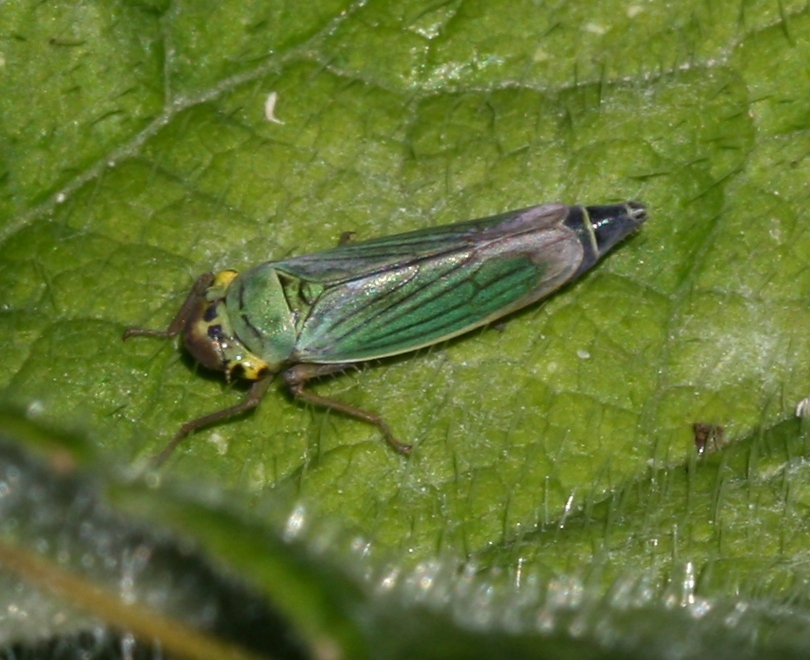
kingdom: Animalia
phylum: Arthropoda
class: Insecta
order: Hemiptera
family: Cicadellidae
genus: Cicadella
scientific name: Cicadella viridis
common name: Leafhopper
